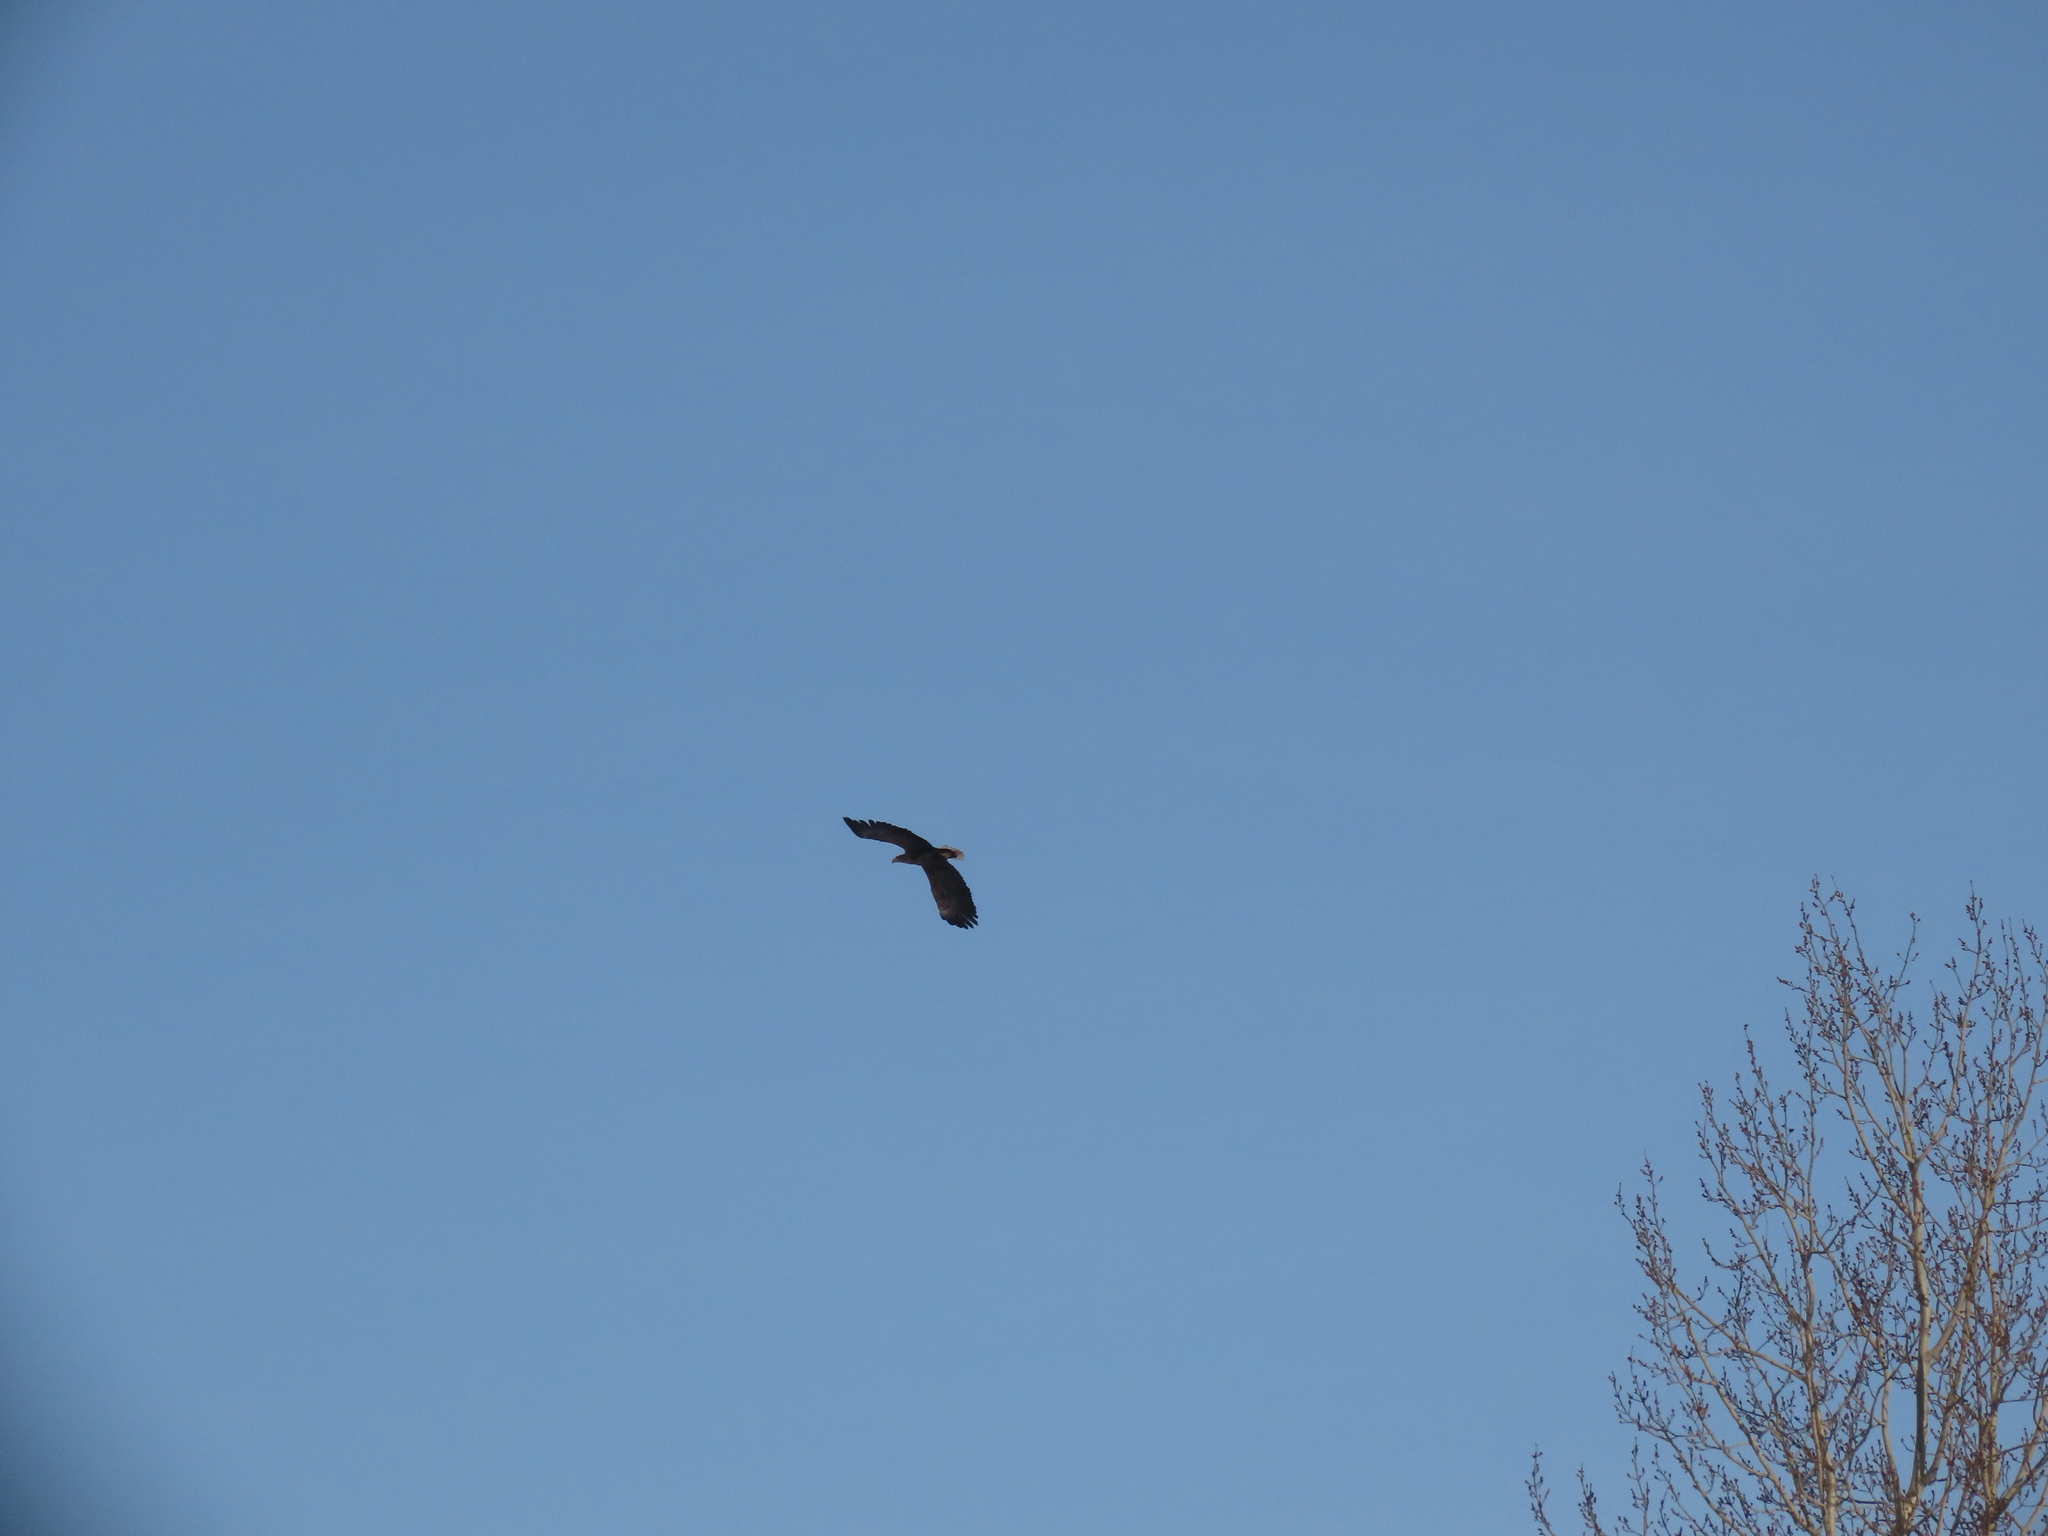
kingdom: Animalia
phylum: Chordata
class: Aves
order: Accipitriformes
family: Accipitridae
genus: Haliaeetus
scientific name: Haliaeetus albicilla
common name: White-tailed eagle
